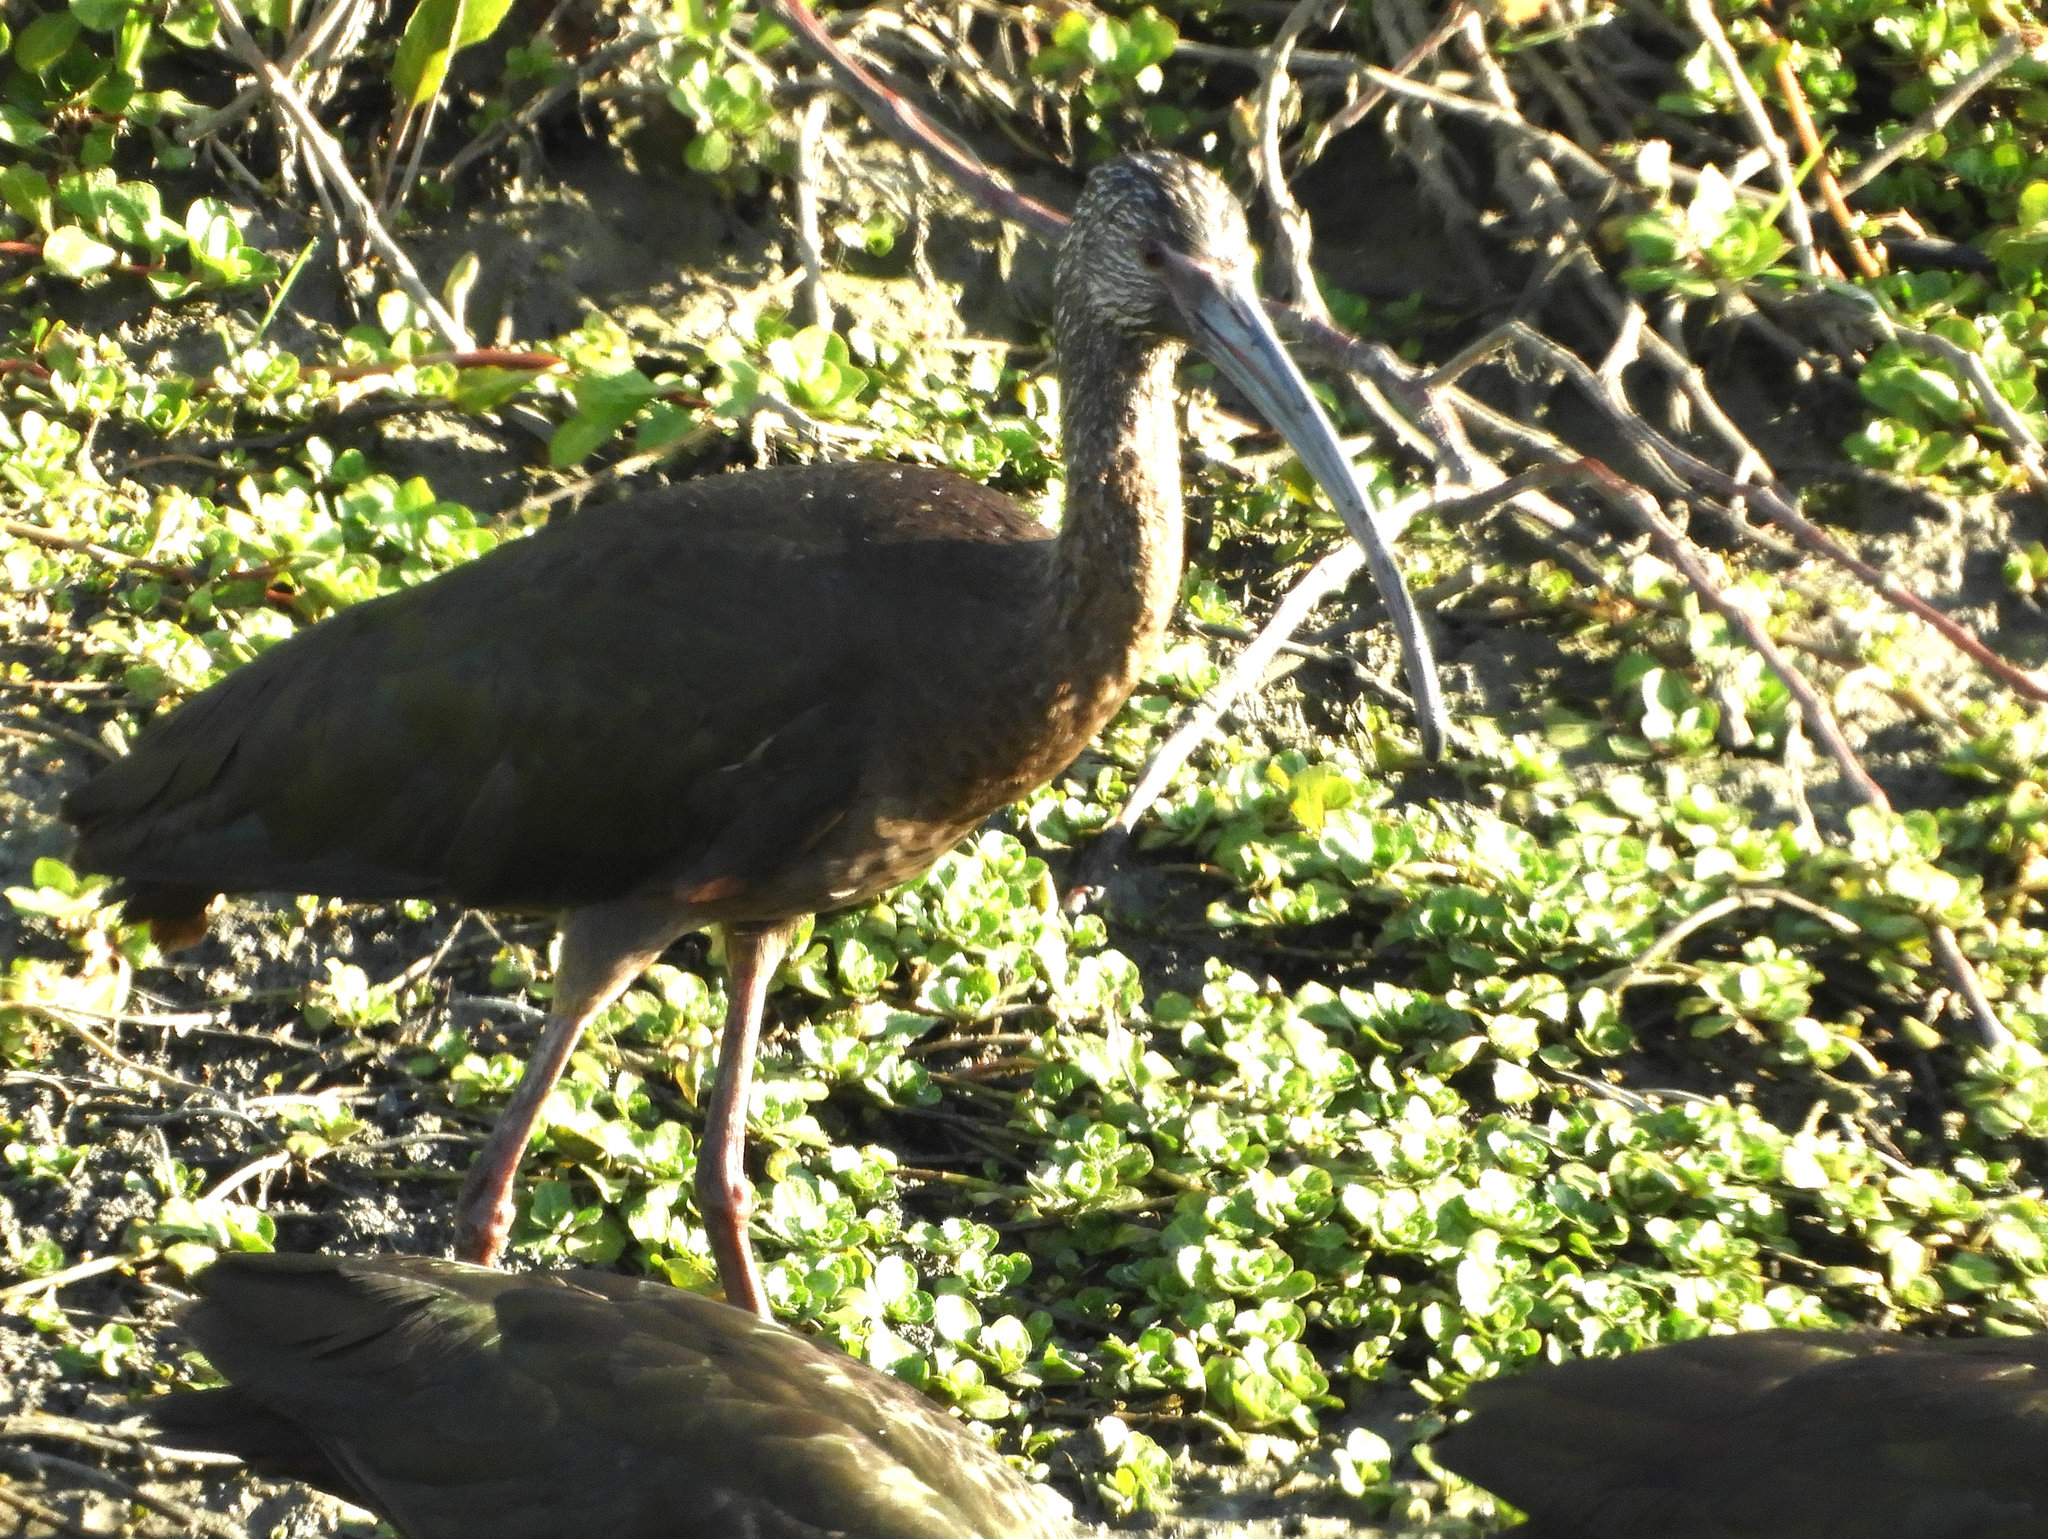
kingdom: Animalia
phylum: Chordata
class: Aves
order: Pelecaniformes
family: Threskiornithidae
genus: Plegadis
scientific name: Plegadis chihi
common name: White-faced ibis
